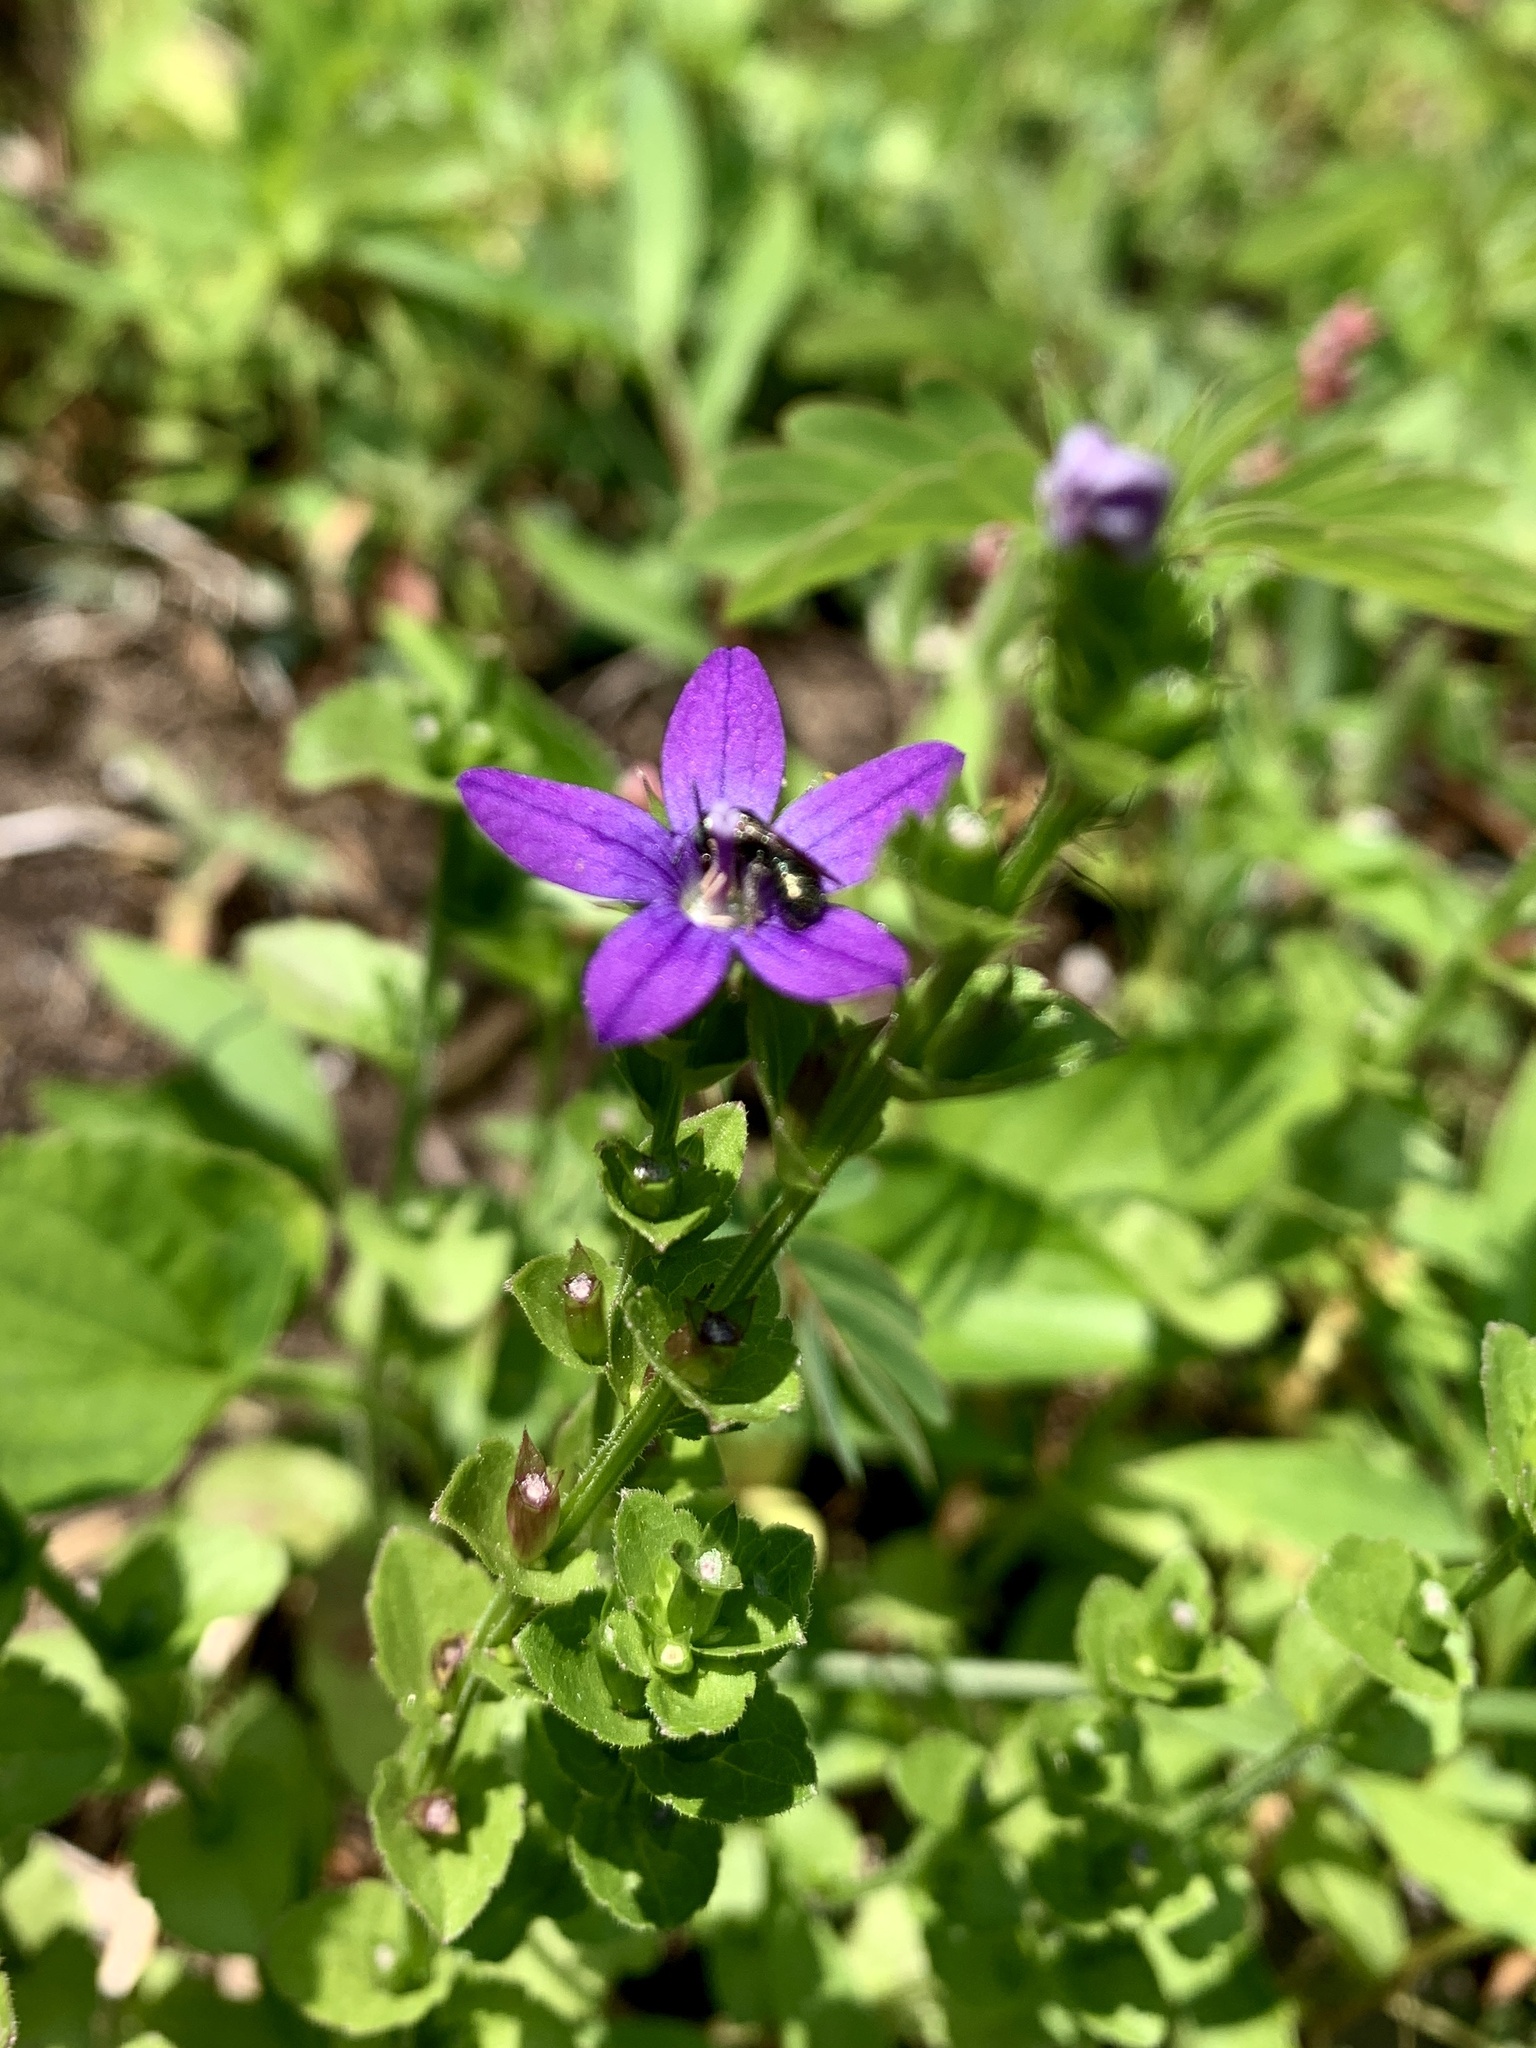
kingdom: Plantae
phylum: Tracheophyta
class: Magnoliopsida
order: Asterales
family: Campanulaceae
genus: Triodanis
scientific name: Triodanis perfoliata
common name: Clasping venus' looking-glass
